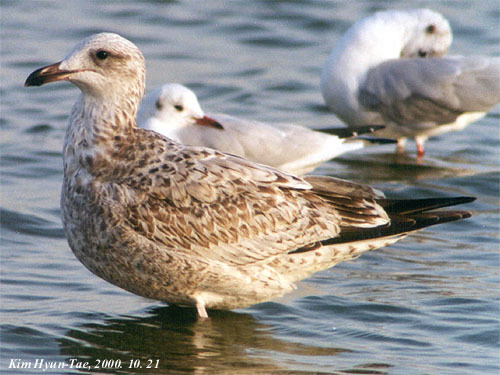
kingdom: Animalia
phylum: Chordata
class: Aves
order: Charadriiformes
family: Laridae
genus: Larus
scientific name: Larus vegae
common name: Vega gull
